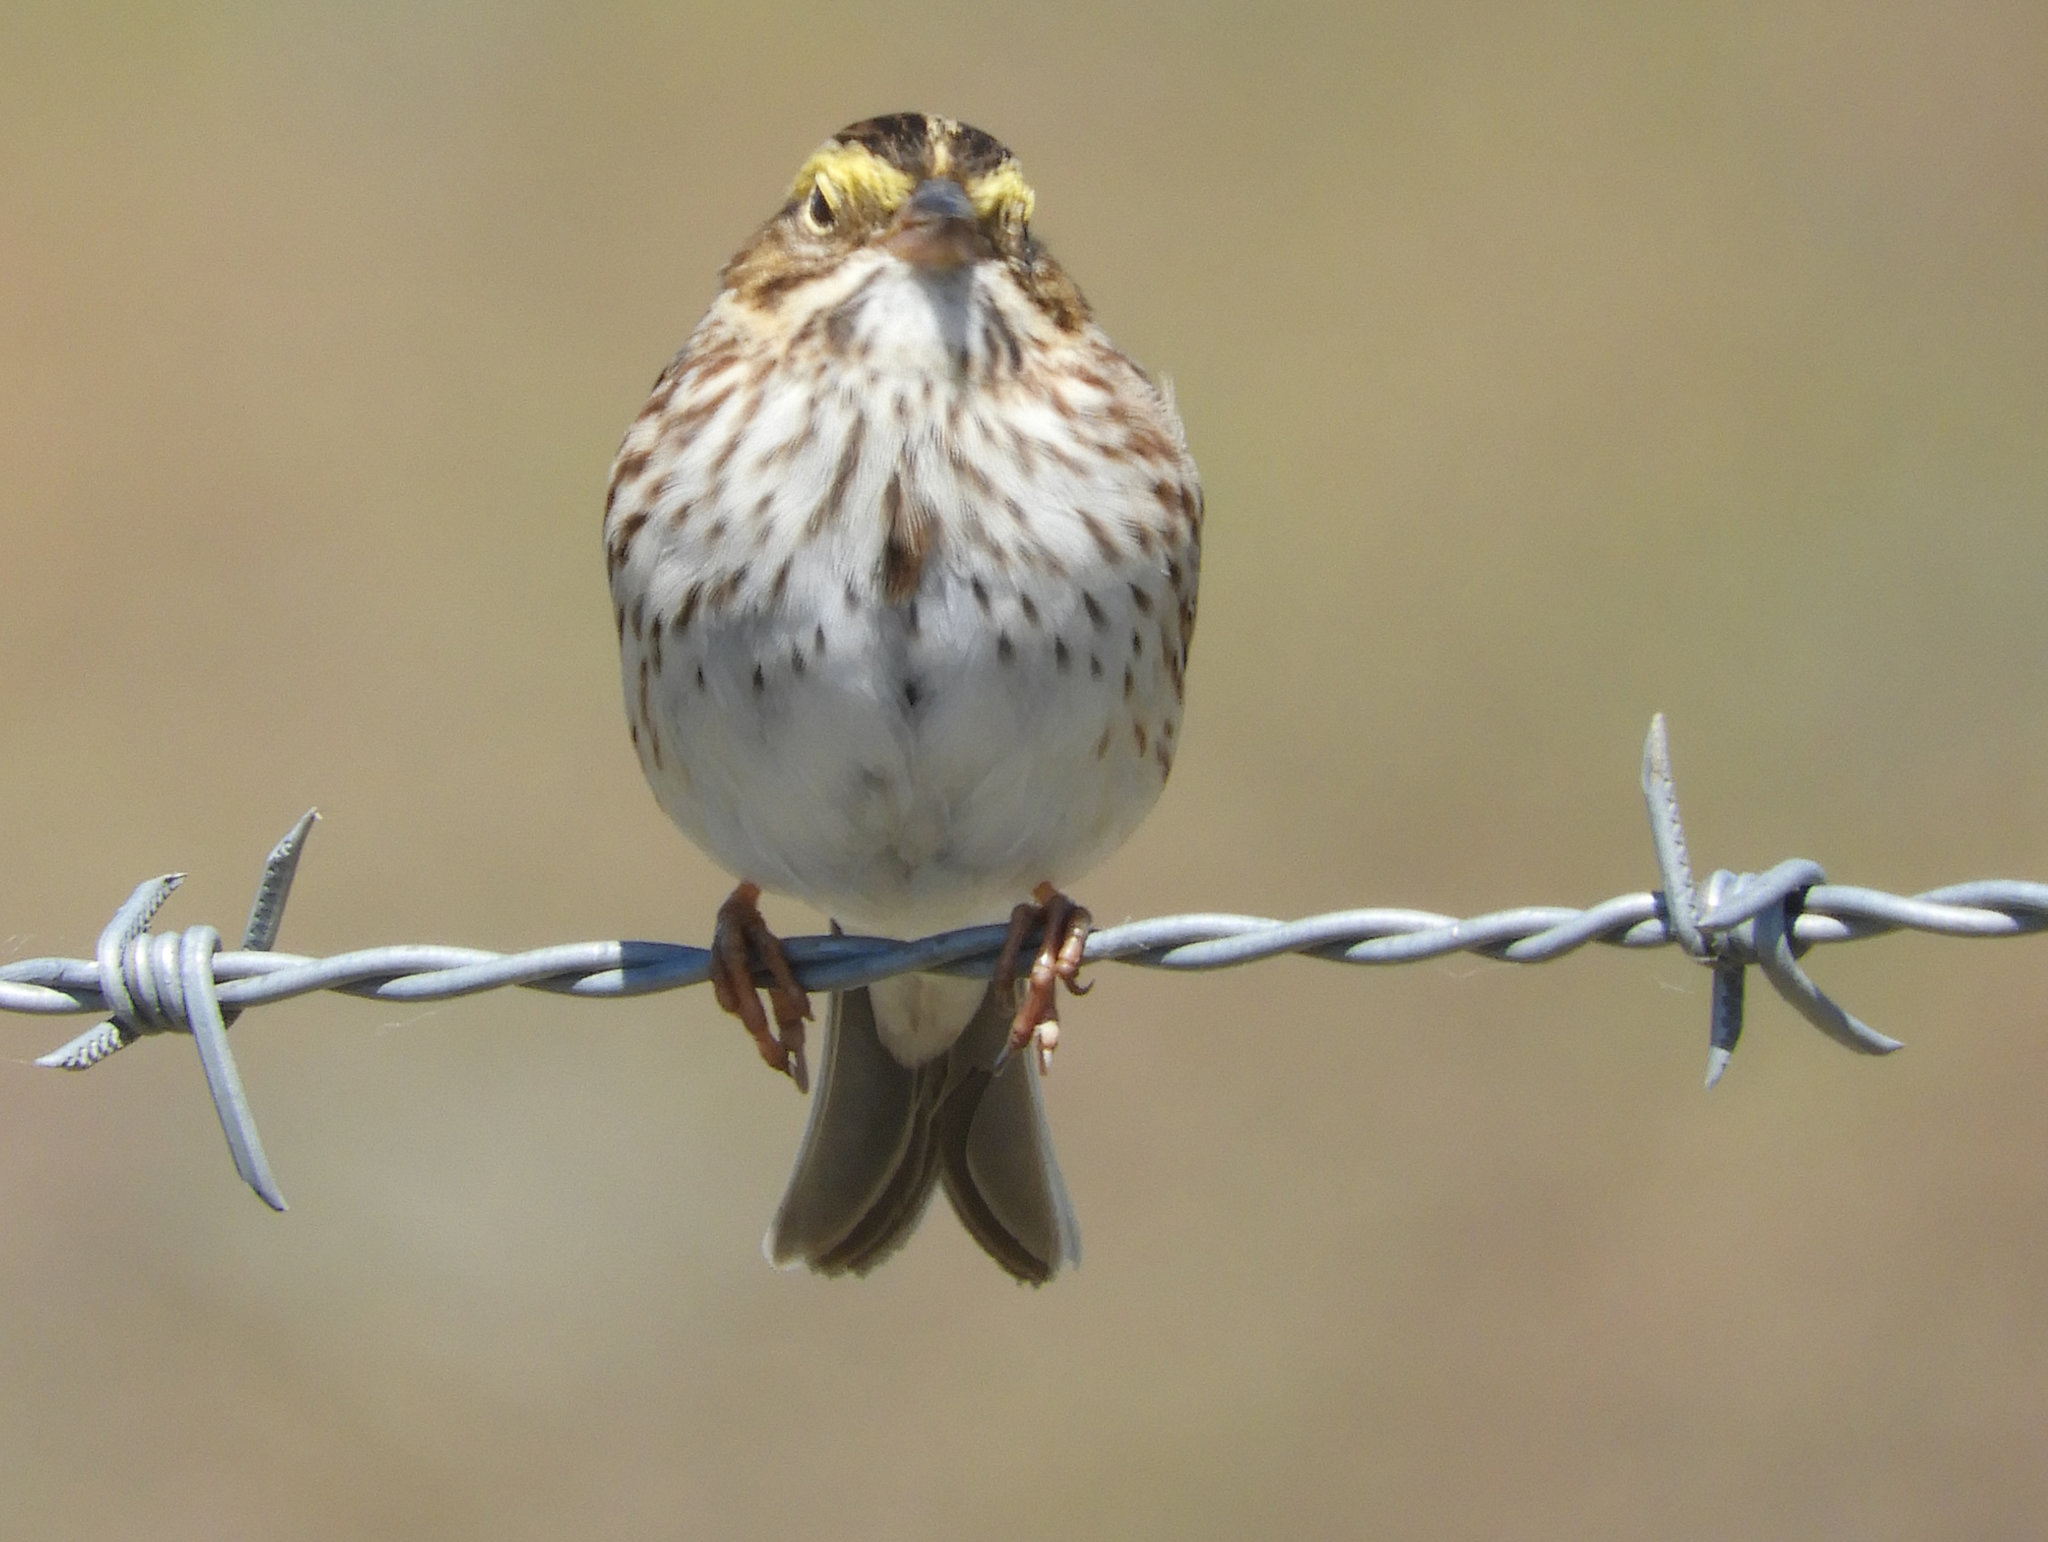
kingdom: Animalia
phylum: Chordata
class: Aves
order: Passeriformes
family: Passerellidae
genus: Passerculus
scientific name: Passerculus sandwichensis
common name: Savannah sparrow
